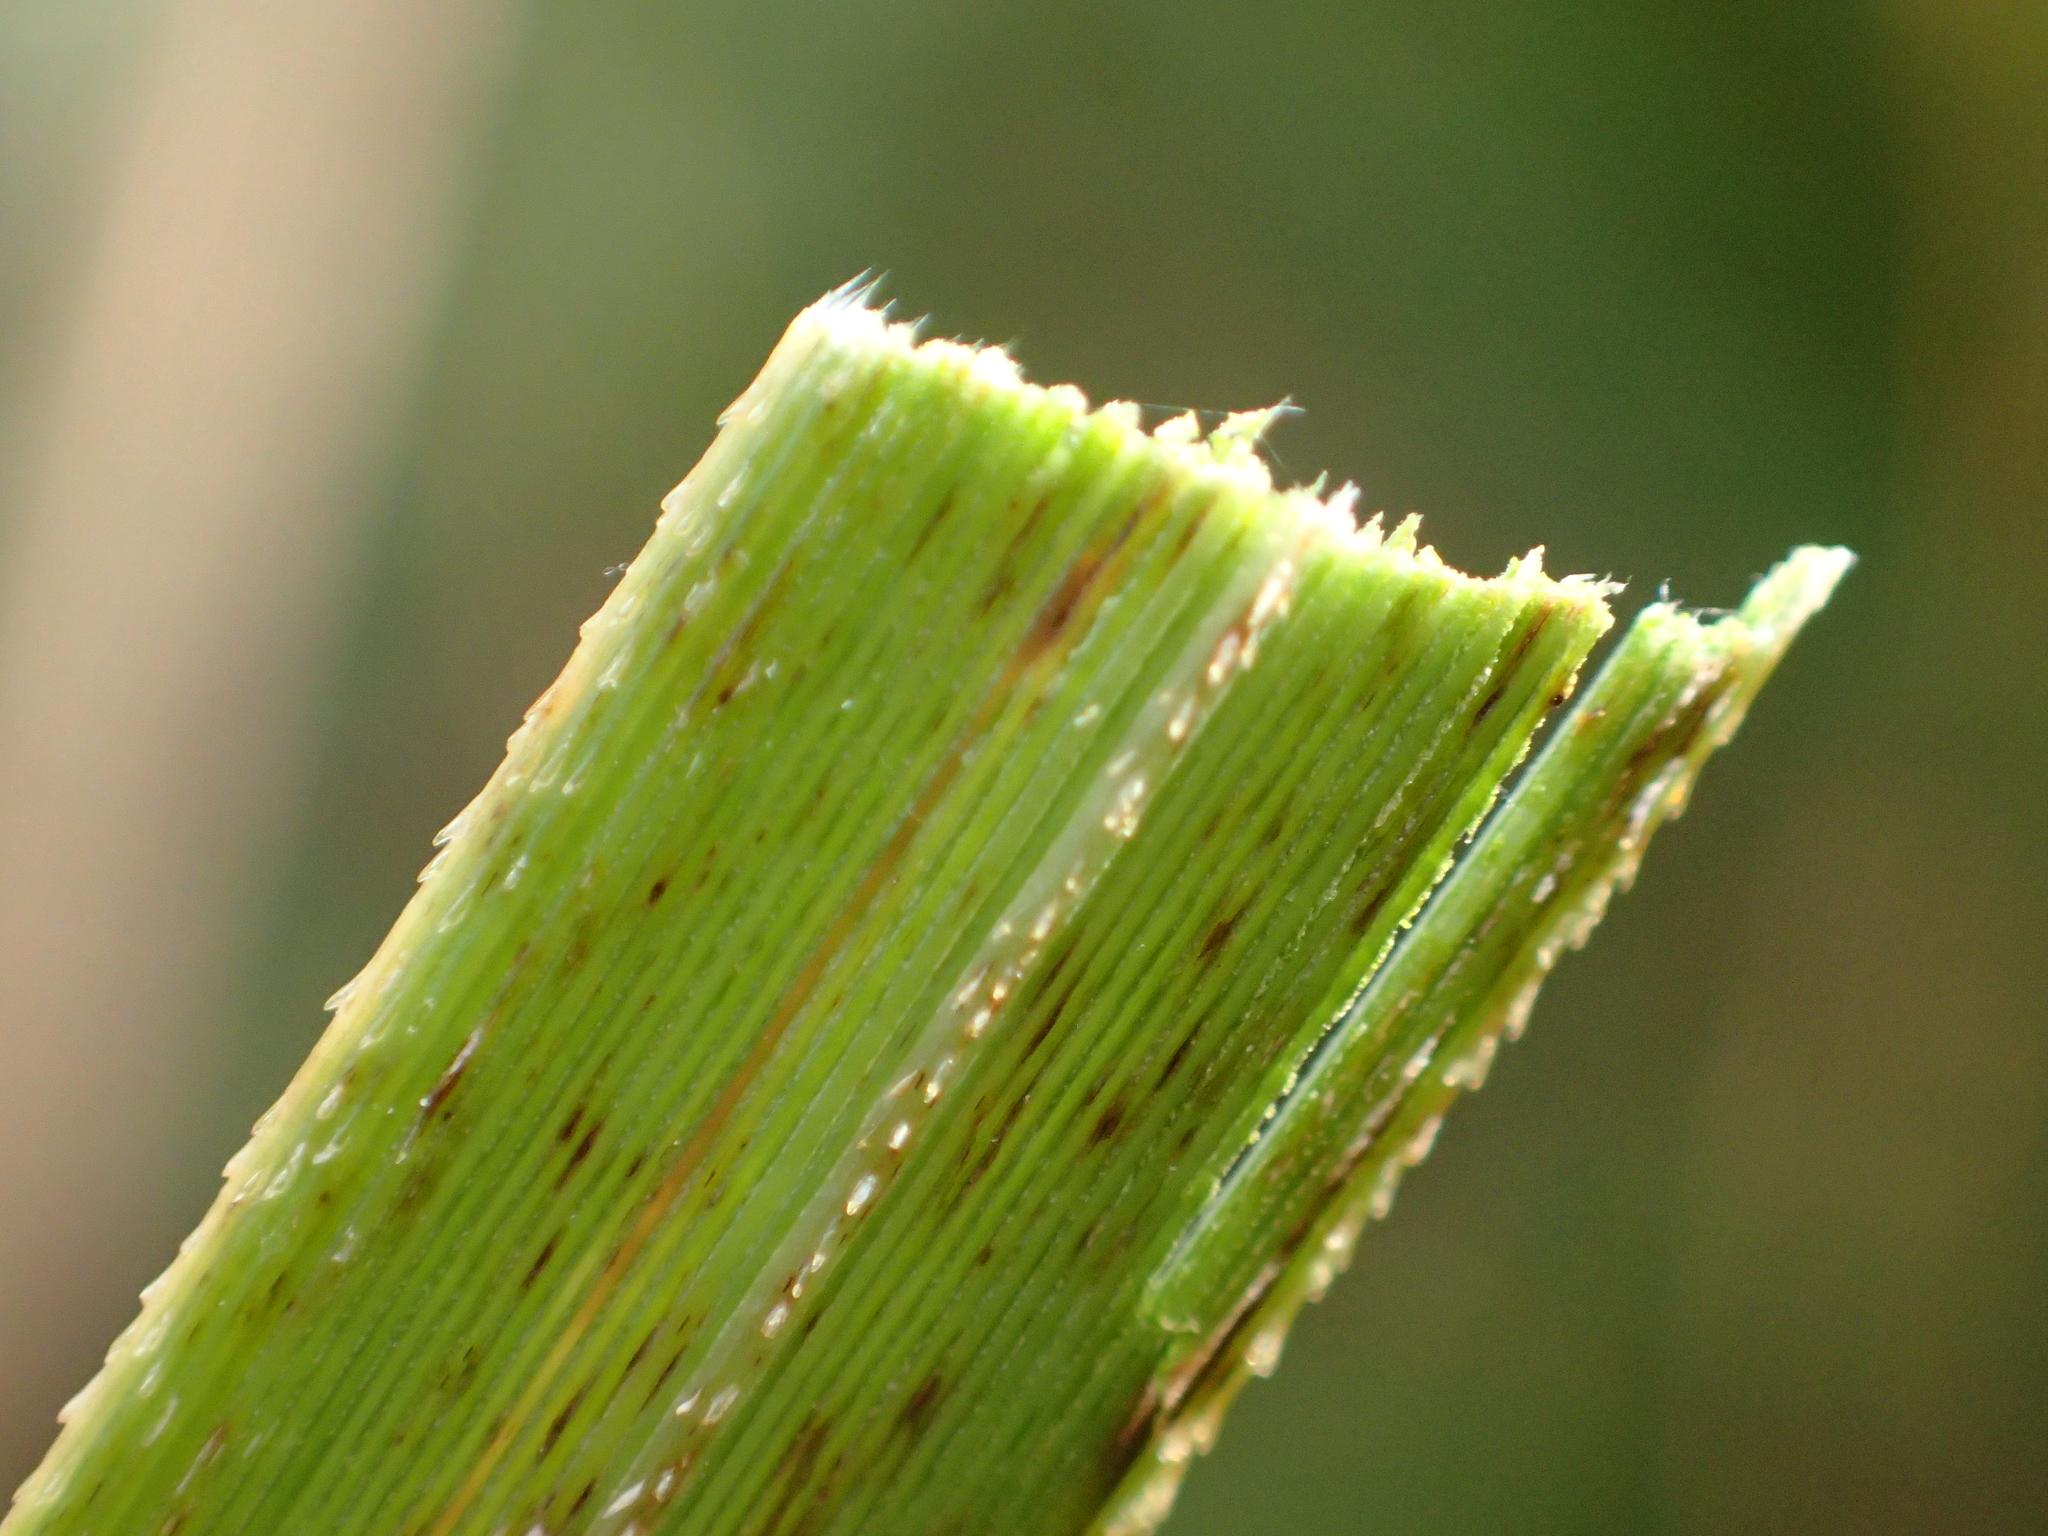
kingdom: Plantae
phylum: Tracheophyta
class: Liliopsida
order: Poales
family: Poaceae
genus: Cortaderia
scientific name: Cortaderia selloana
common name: Uruguayan pampas grass
